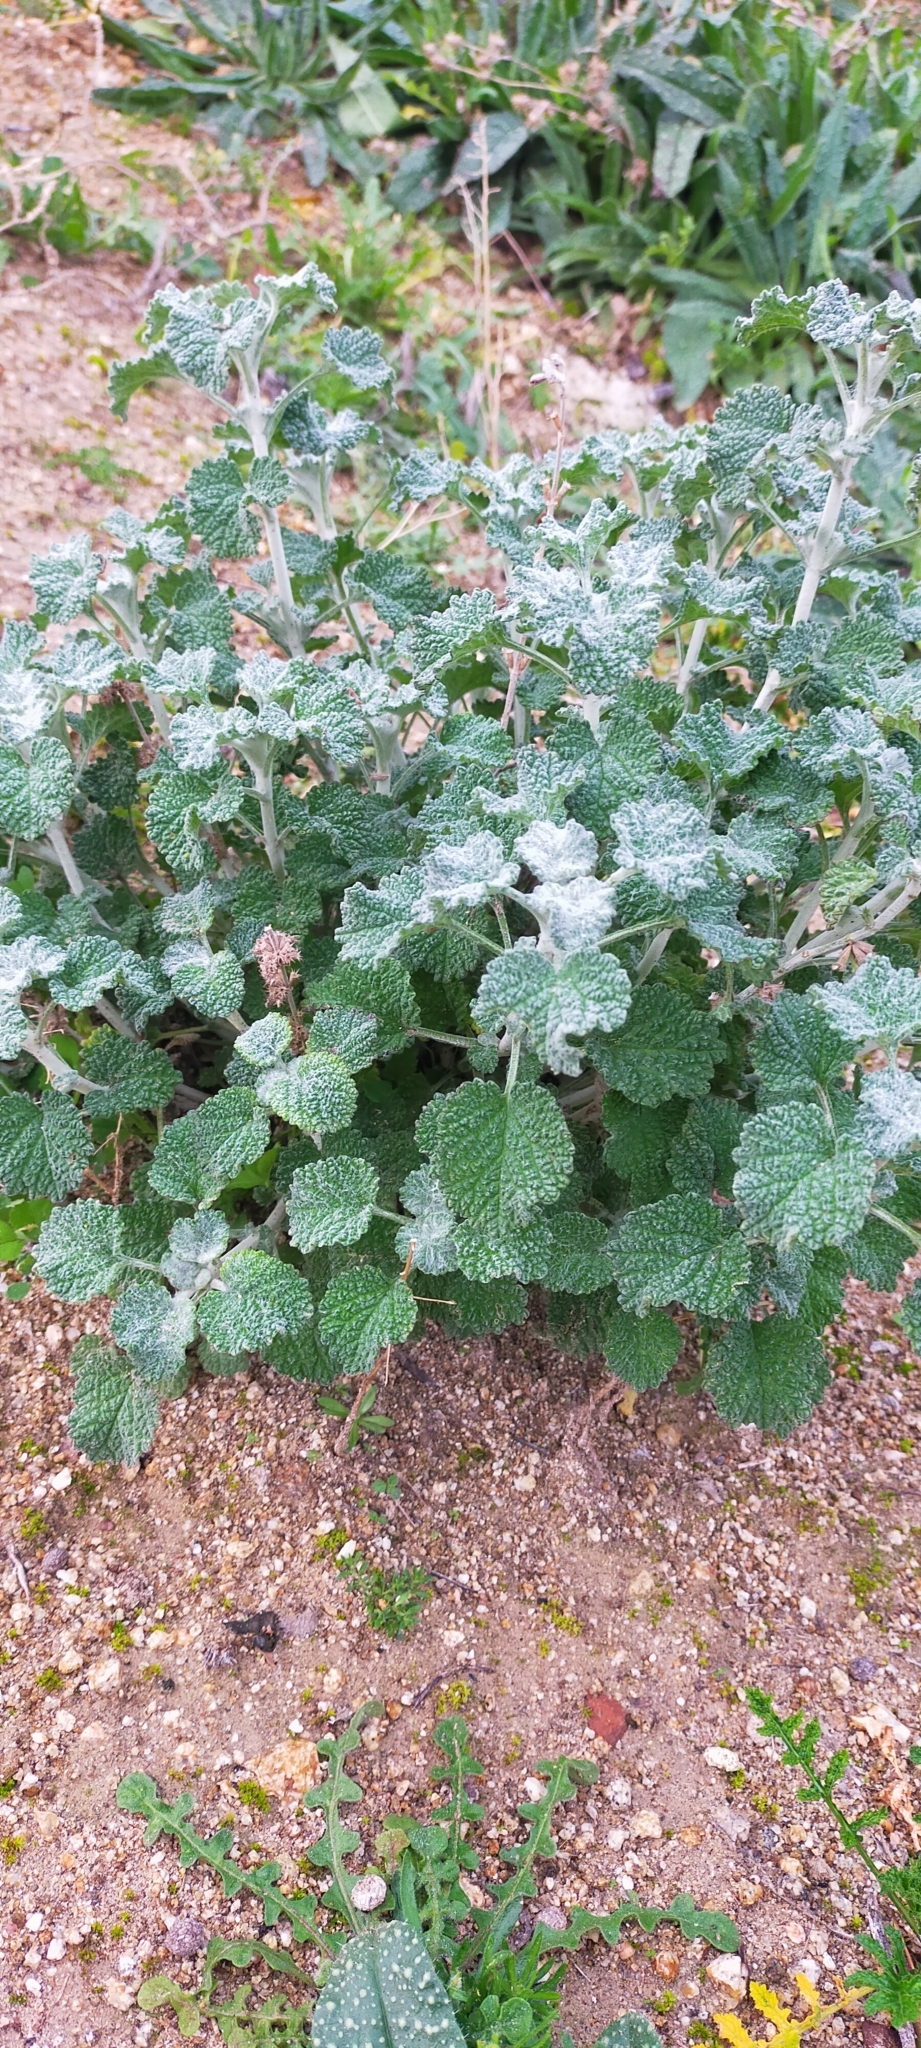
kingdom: Plantae
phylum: Tracheophyta
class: Magnoliopsida
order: Lamiales
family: Lamiaceae
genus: Marrubium
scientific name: Marrubium vulgare
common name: Horehound
